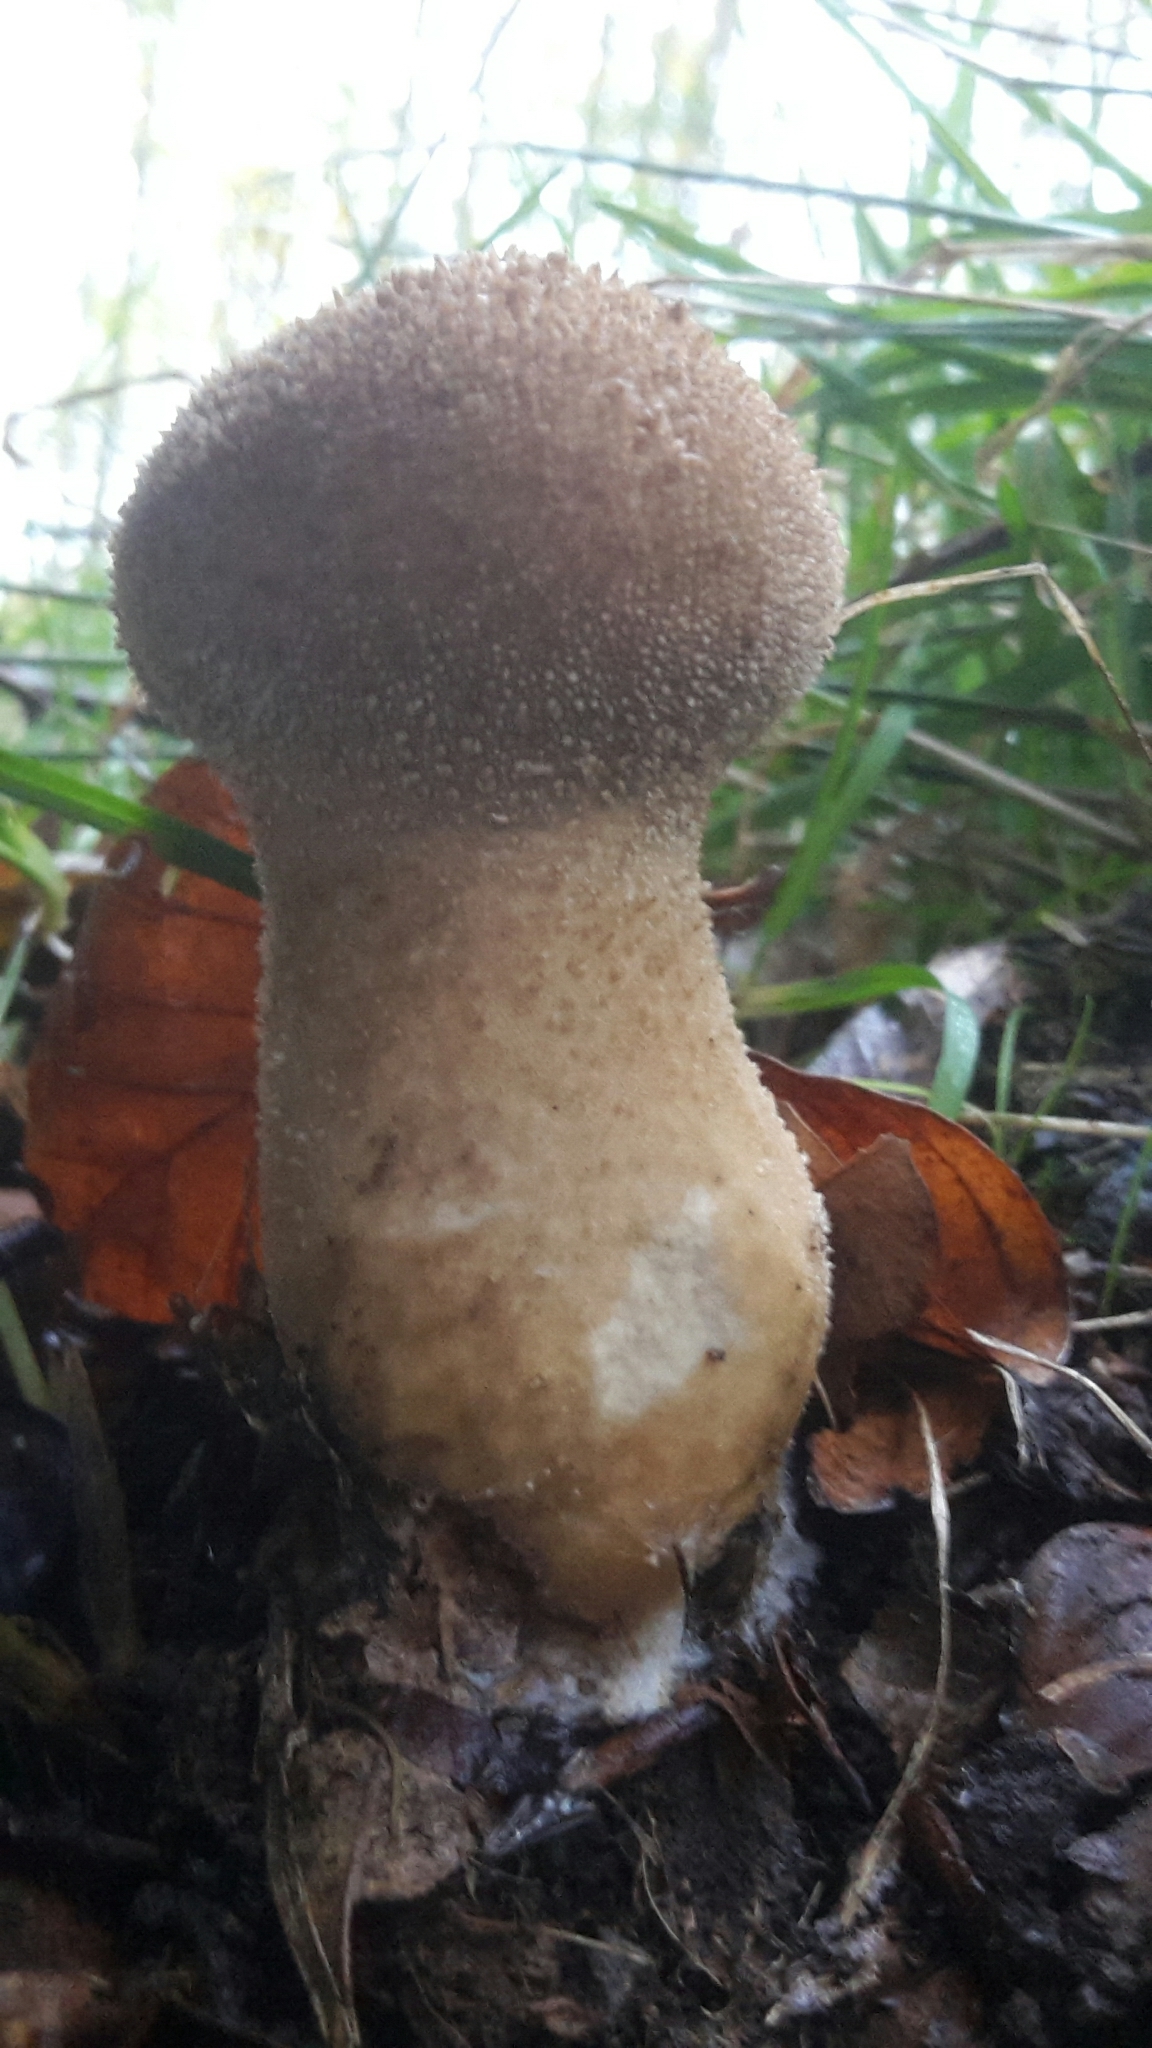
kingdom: Fungi
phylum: Basidiomycota
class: Agaricomycetes
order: Agaricales
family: Lycoperdaceae
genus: Lycoperdon
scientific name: Lycoperdon perlatum
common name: Common puffball
